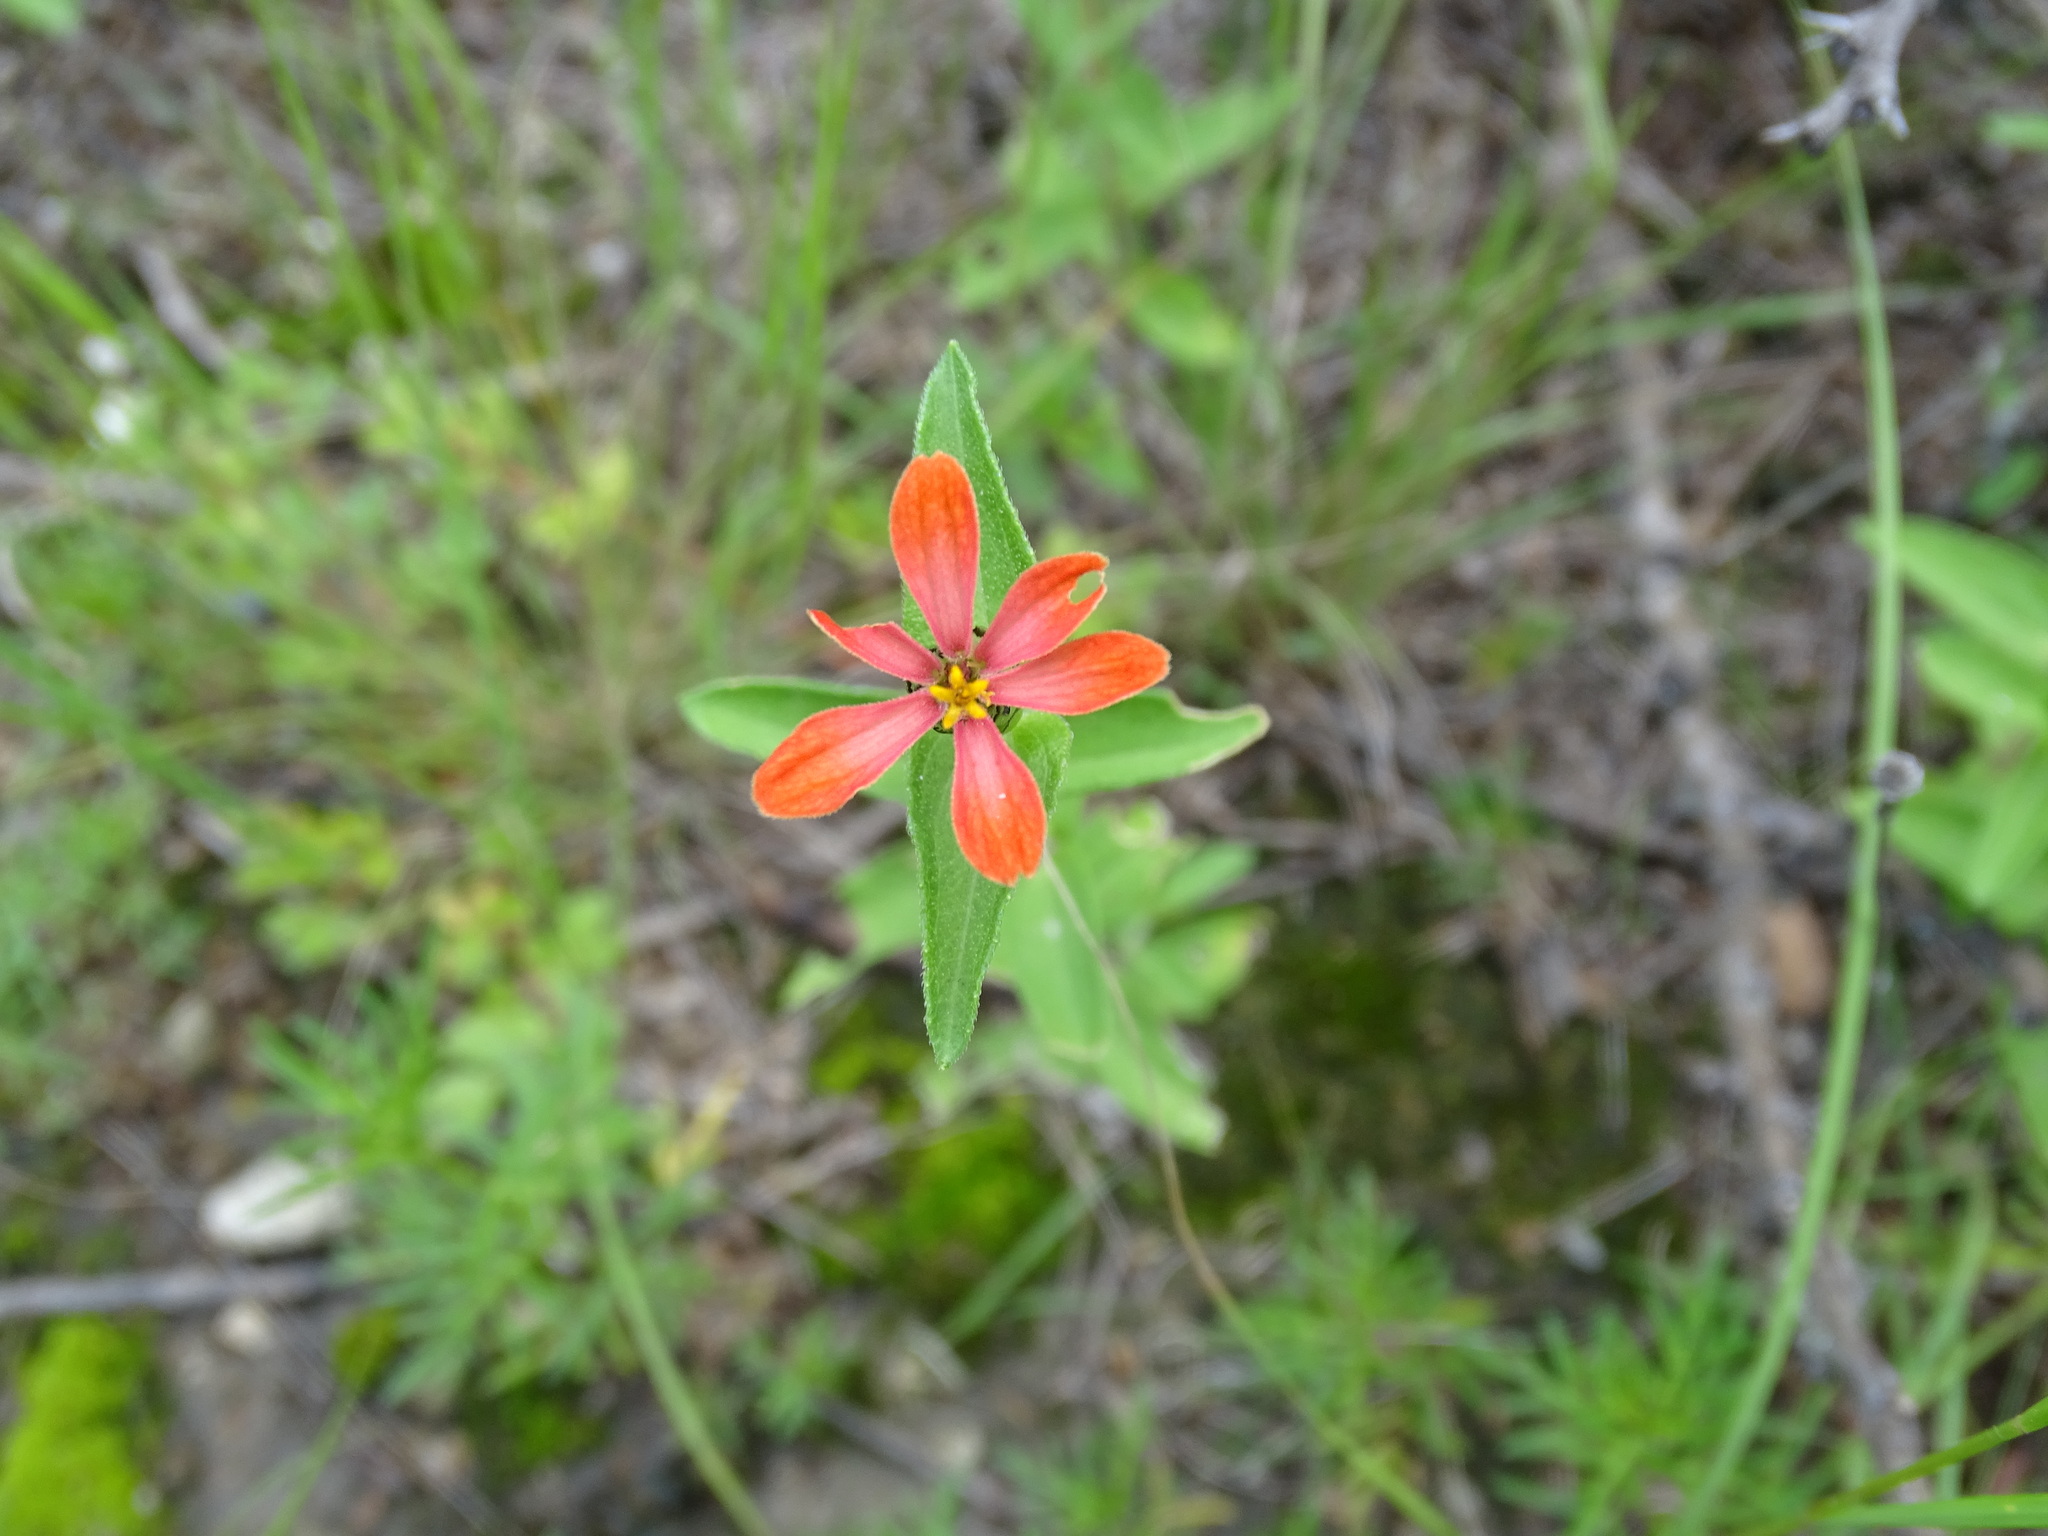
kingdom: Plantae
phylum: Tracheophyta
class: Magnoliopsida
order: Asterales
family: Asteraceae
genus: Zinnia
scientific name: Zinnia peruviana
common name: Peruvian zinnia
